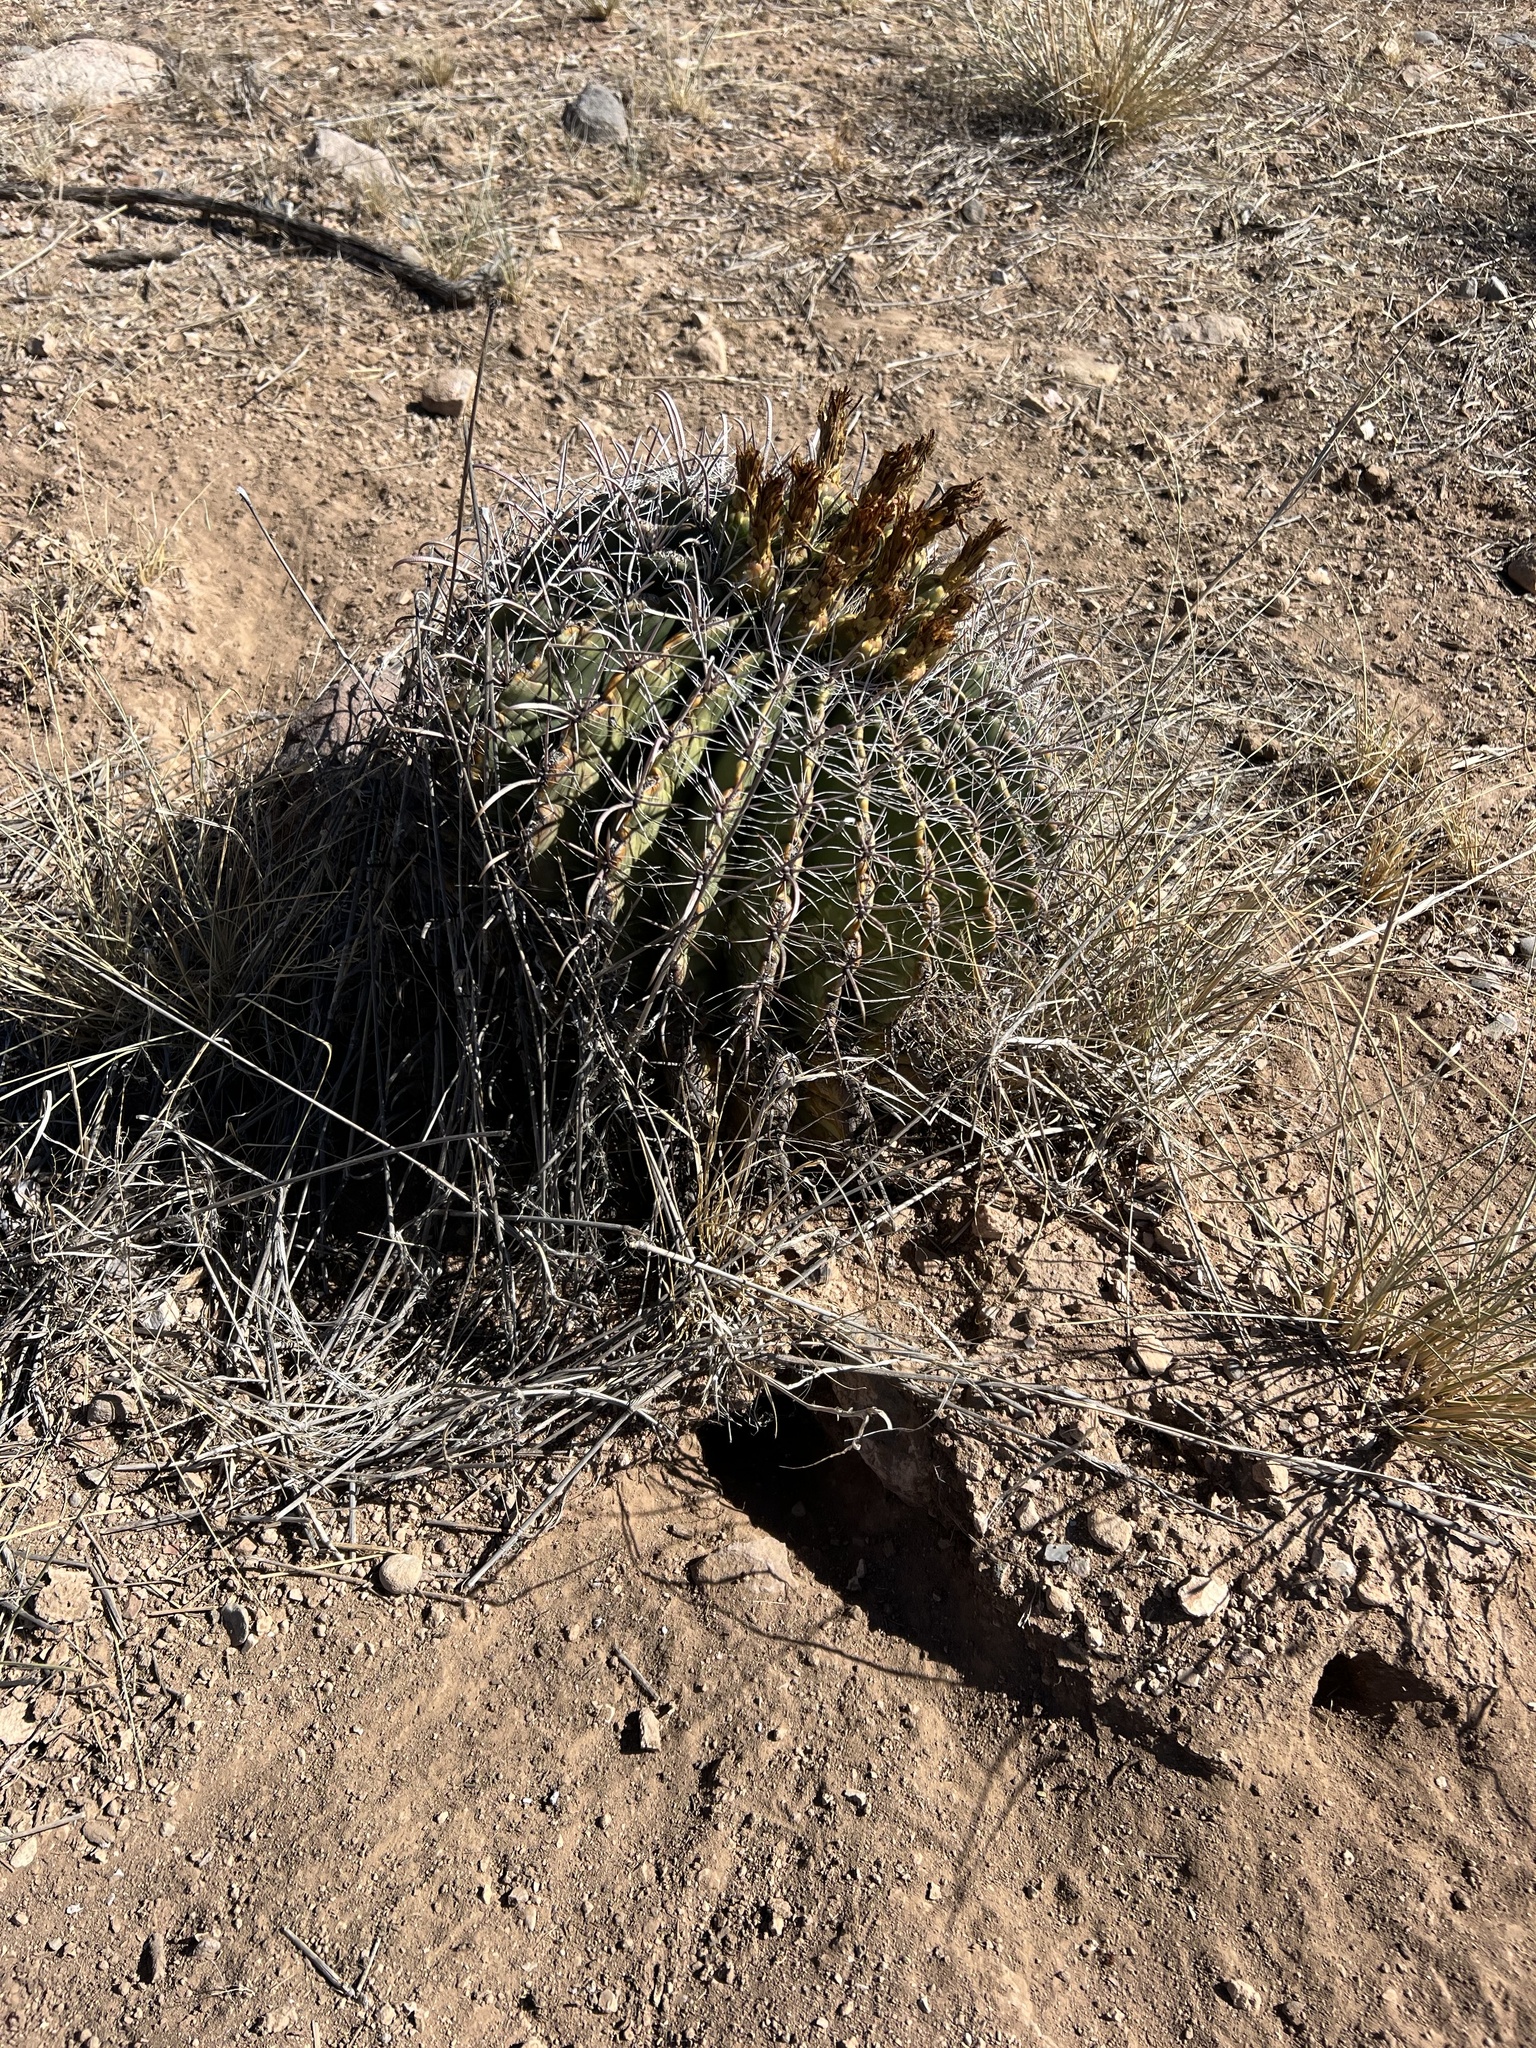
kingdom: Plantae
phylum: Tracheophyta
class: Magnoliopsida
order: Caryophyllales
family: Cactaceae
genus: Ferocactus
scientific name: Ferocactus wislizeni
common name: Candy barrel cactus
